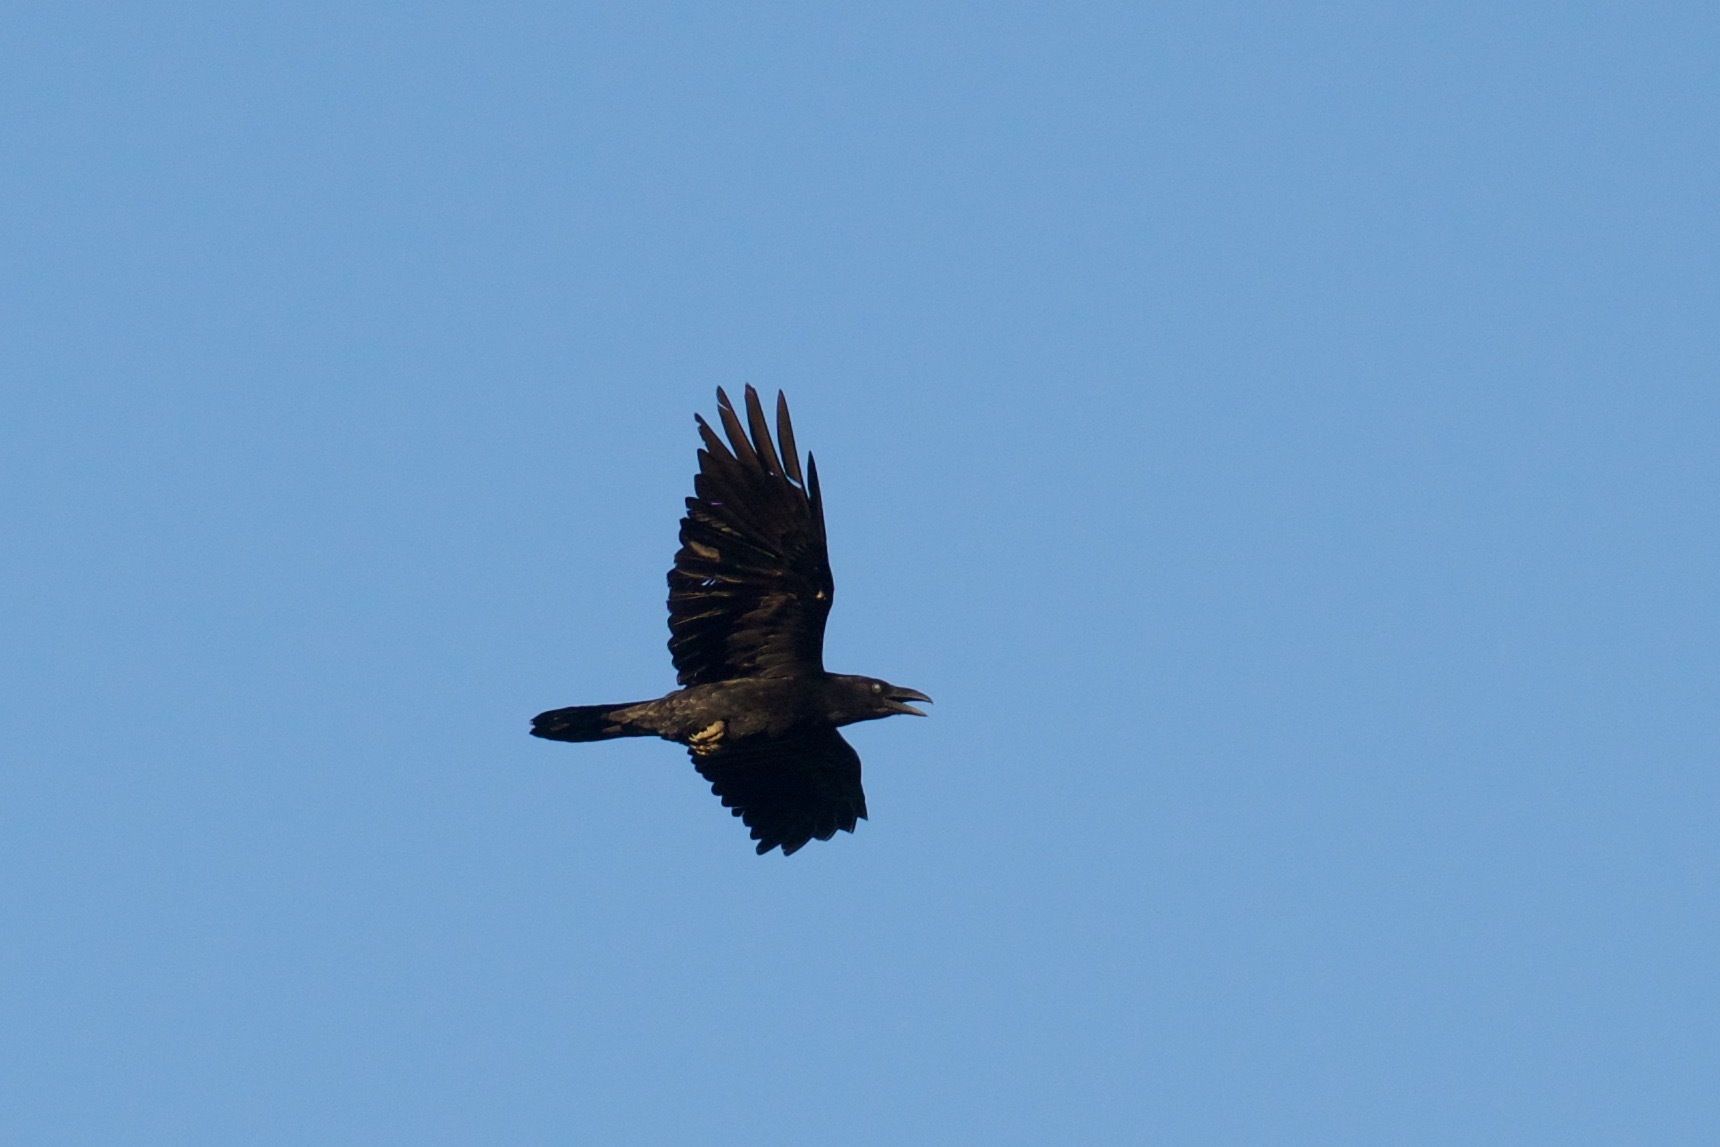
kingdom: Animalia
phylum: Chordata
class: Aves
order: Passeriformes
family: Corvidae
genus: Corvus
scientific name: Corvus cryptoleucus
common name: Chihuahuan raven
